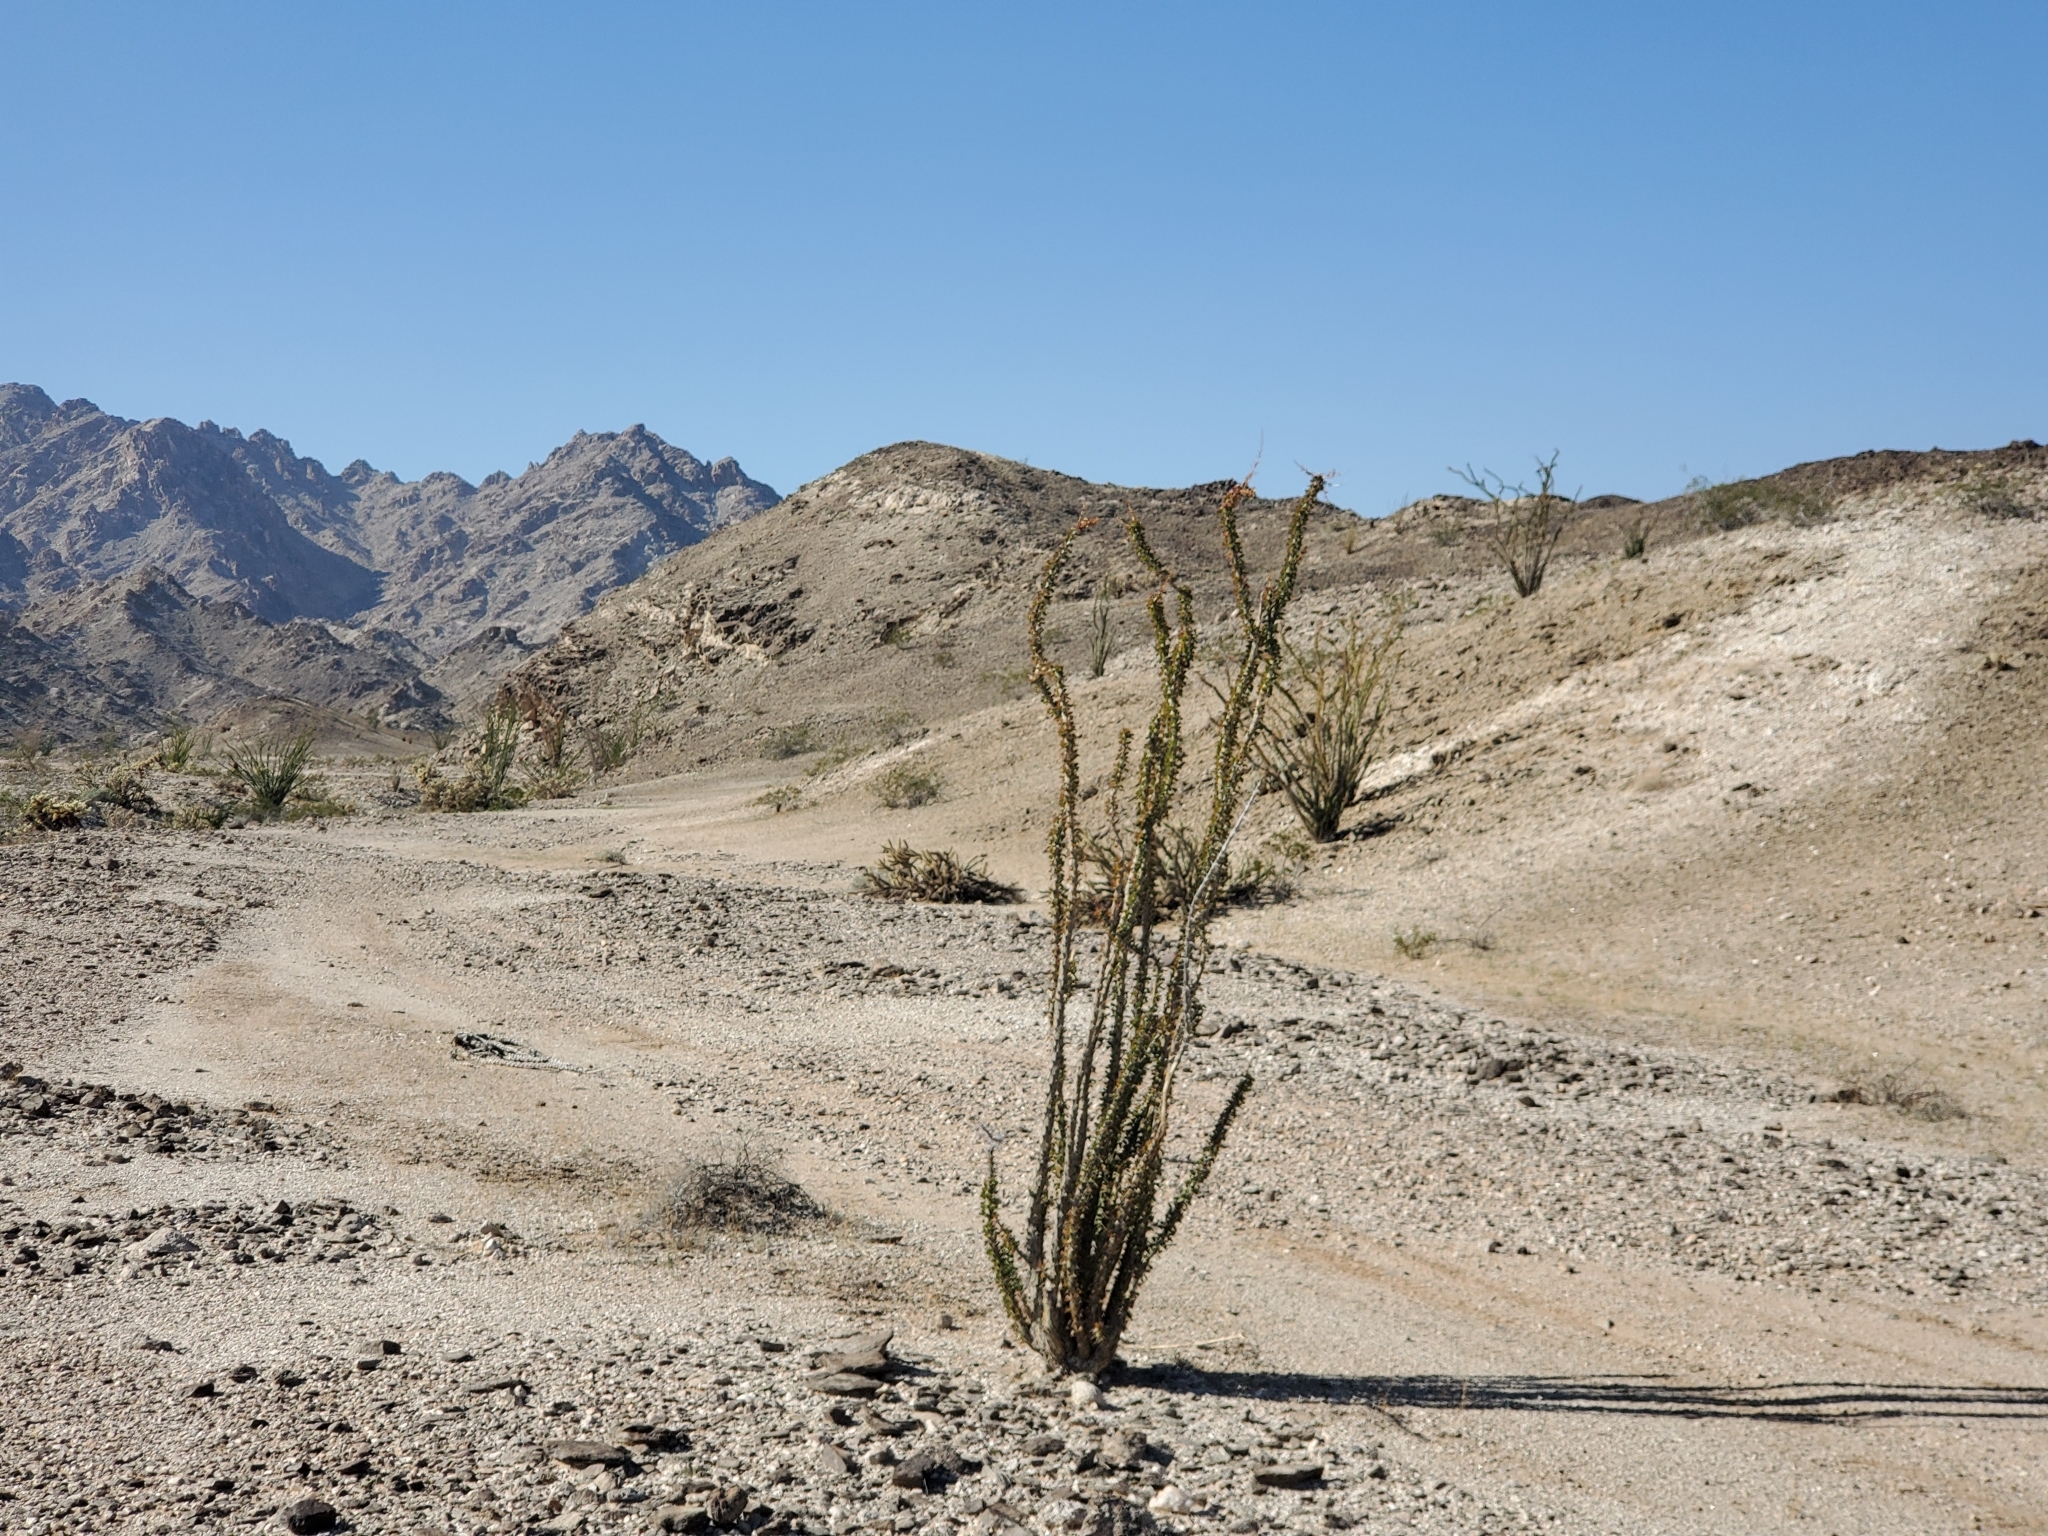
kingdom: Plantae
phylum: Tracheophyta
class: Magnoliopsida
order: Ericales
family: Fouquieriaceae
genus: Fouquieria
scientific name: Fouquieria splendens
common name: Vine-cactus
